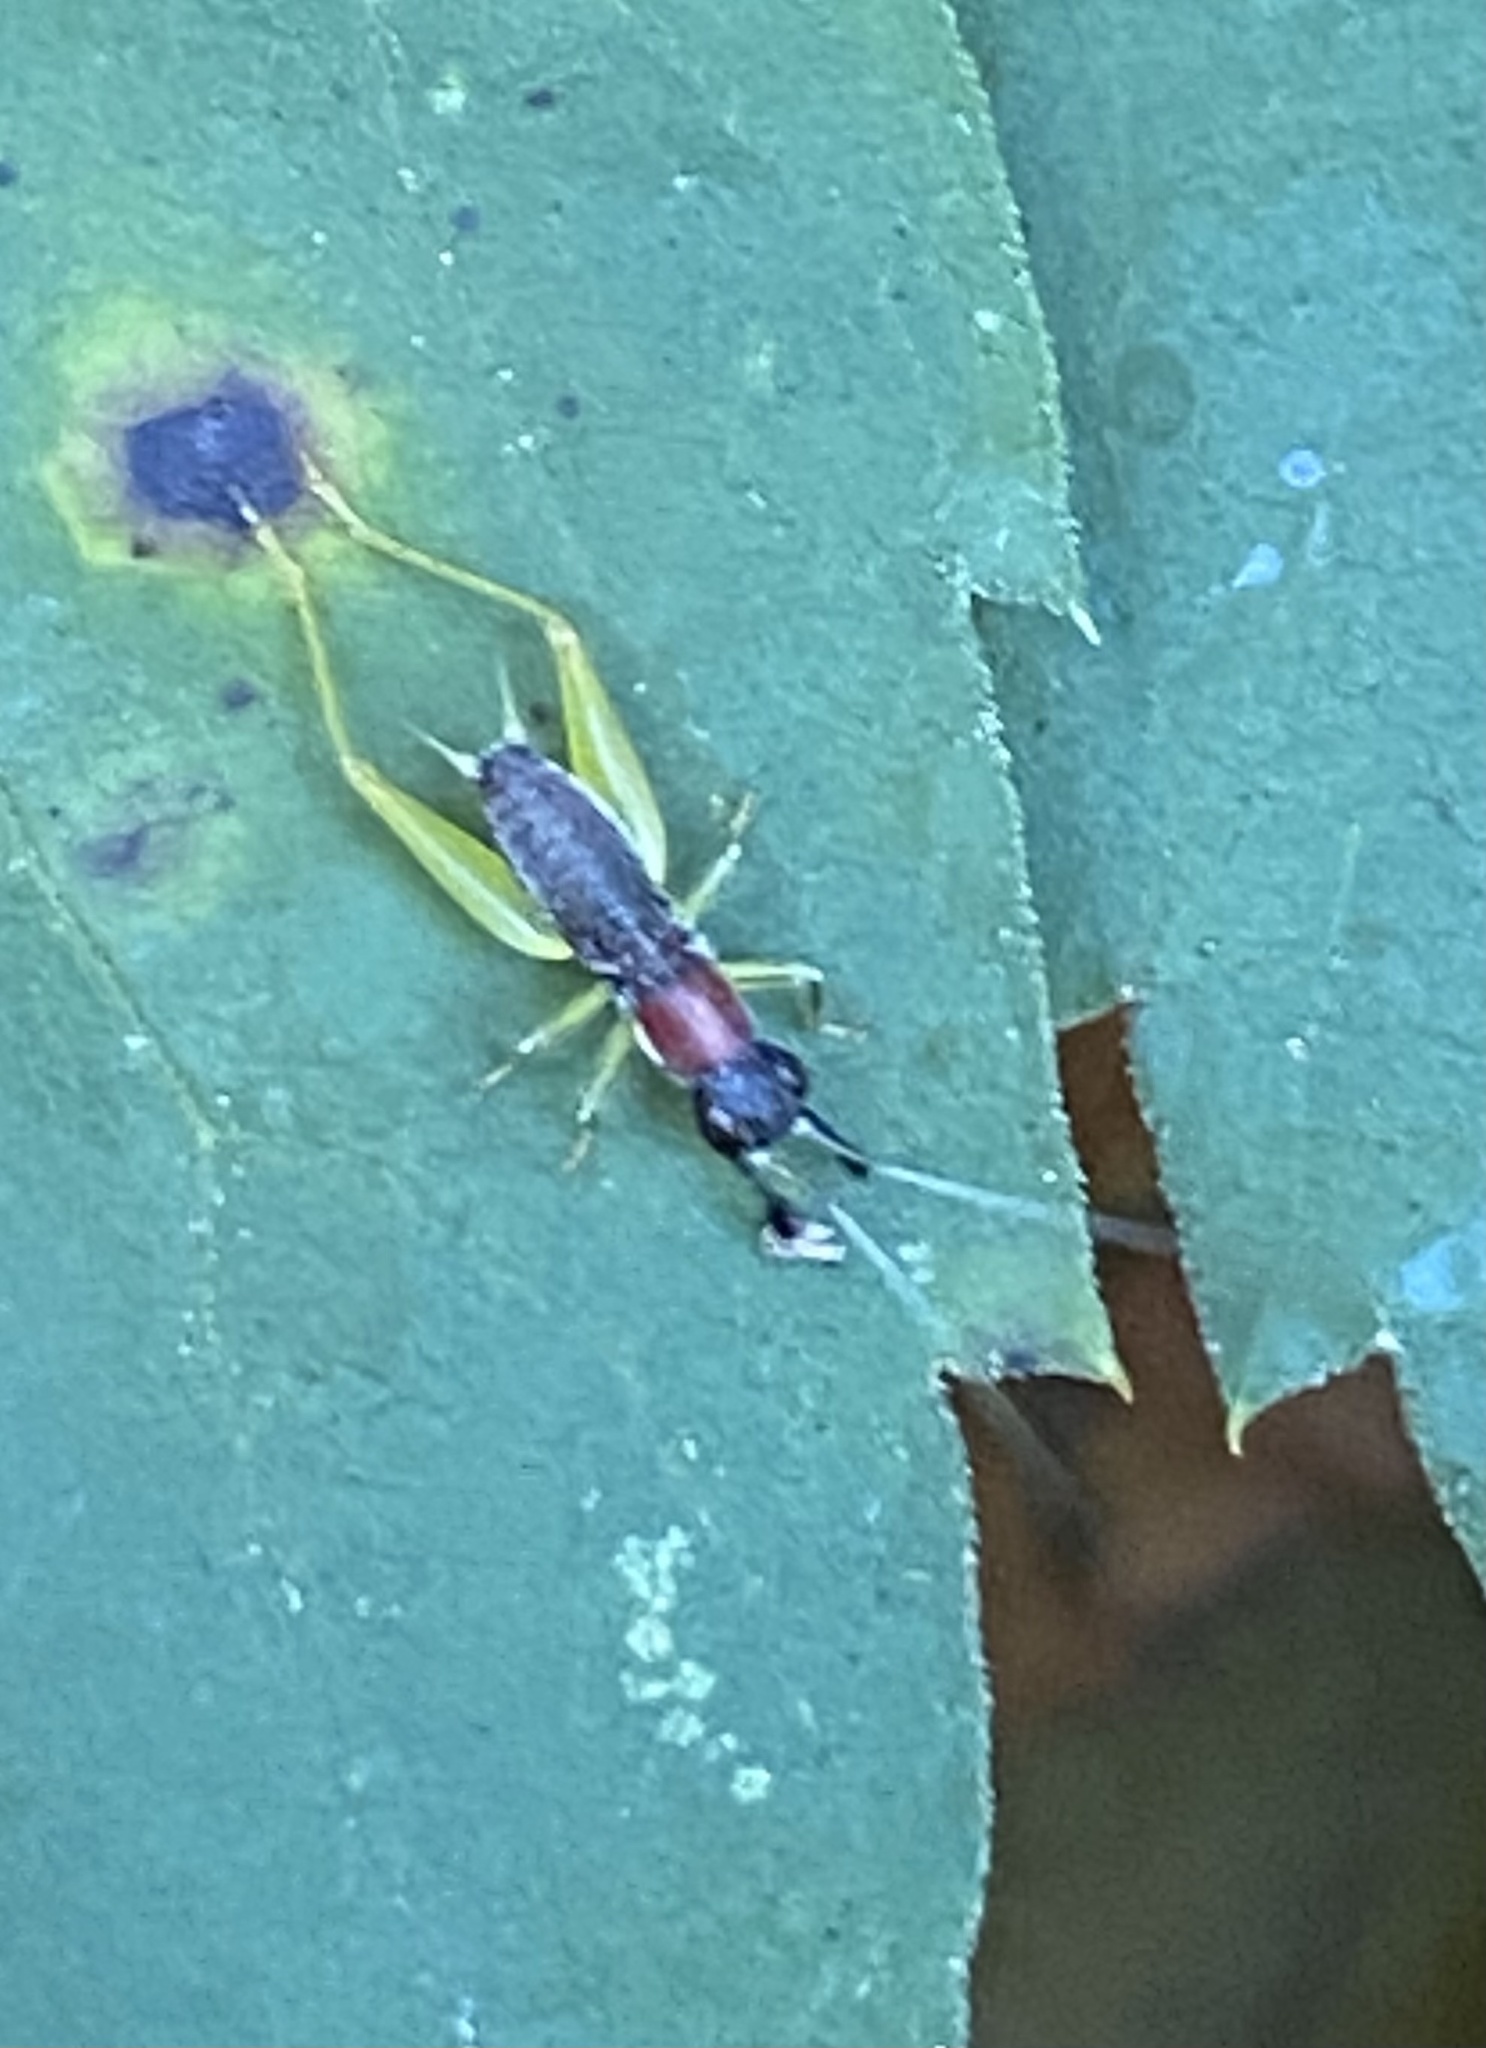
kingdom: Animalia
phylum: Arthropoda
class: Insecta
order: Orthoptera
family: Trigonidiidae
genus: Phyllopalpus
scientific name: Phyllopalpus pulchellus
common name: Handsome trig
